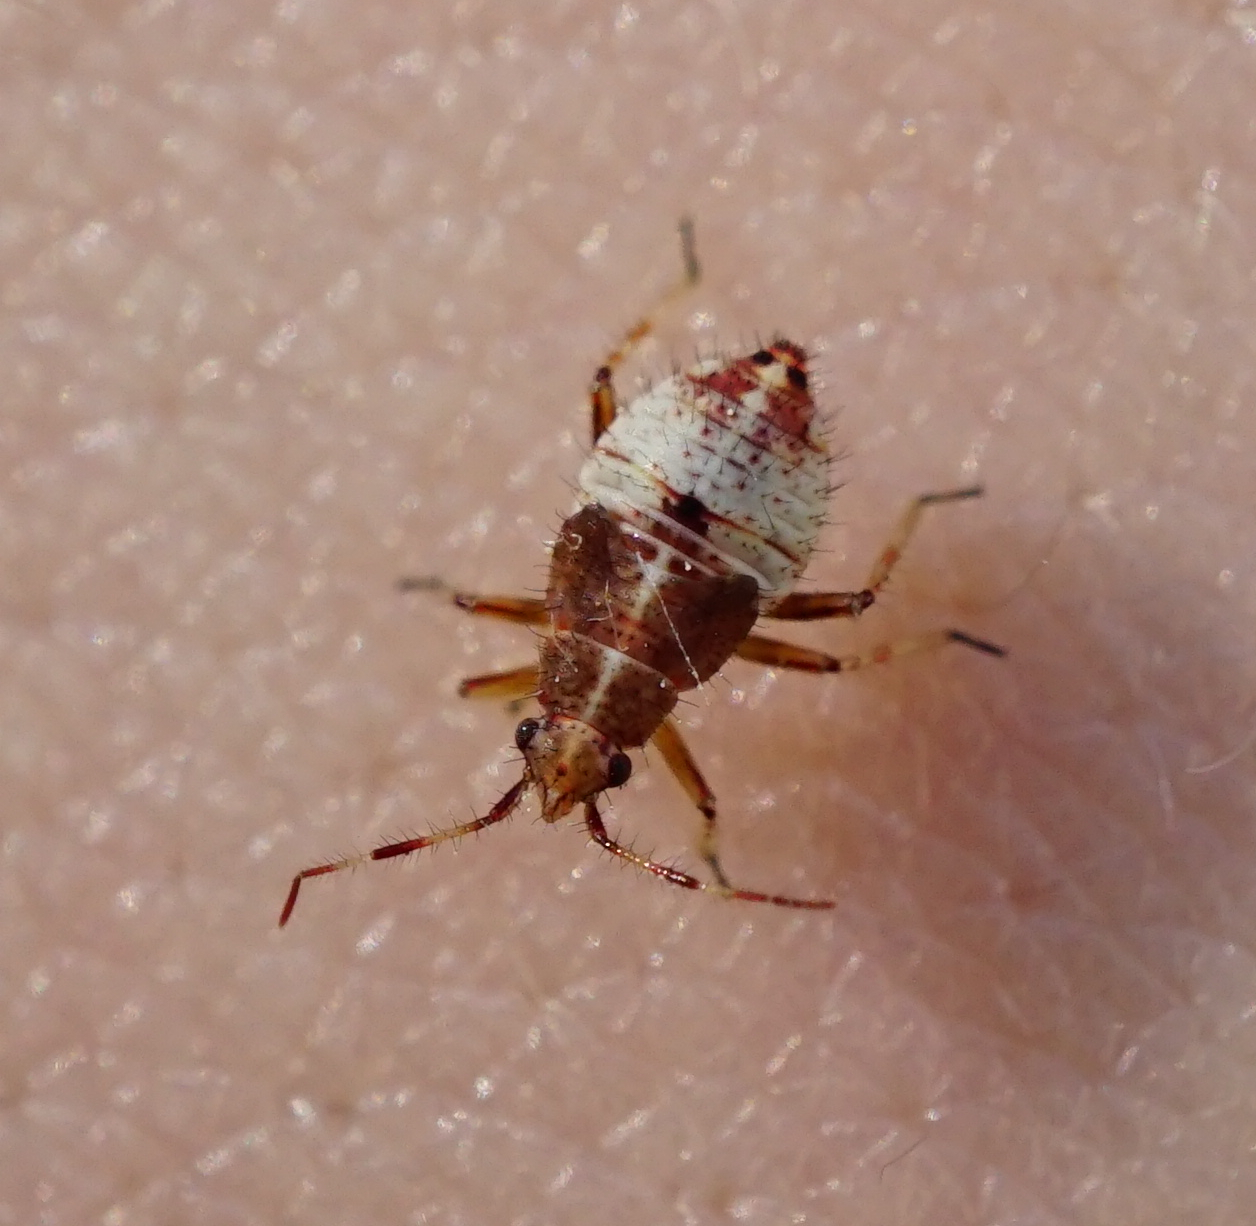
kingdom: Animalia
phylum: Arthropoda
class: Insecta
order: Hemiptera
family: Miridae
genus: Deraeocoris
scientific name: Deraeocoris flavilinea
